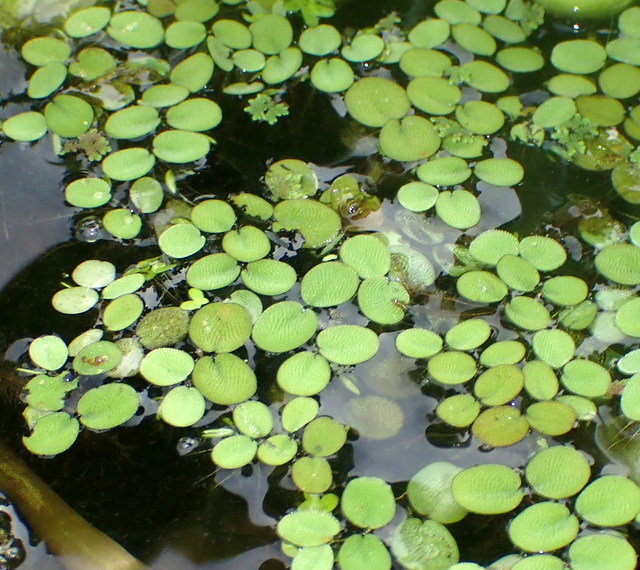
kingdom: Plantae
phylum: Tracheophyta
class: Polypodiopsida
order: Salviniales
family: Salviniaceae
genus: Salvinia
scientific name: Salvinia minima
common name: Water spangles
